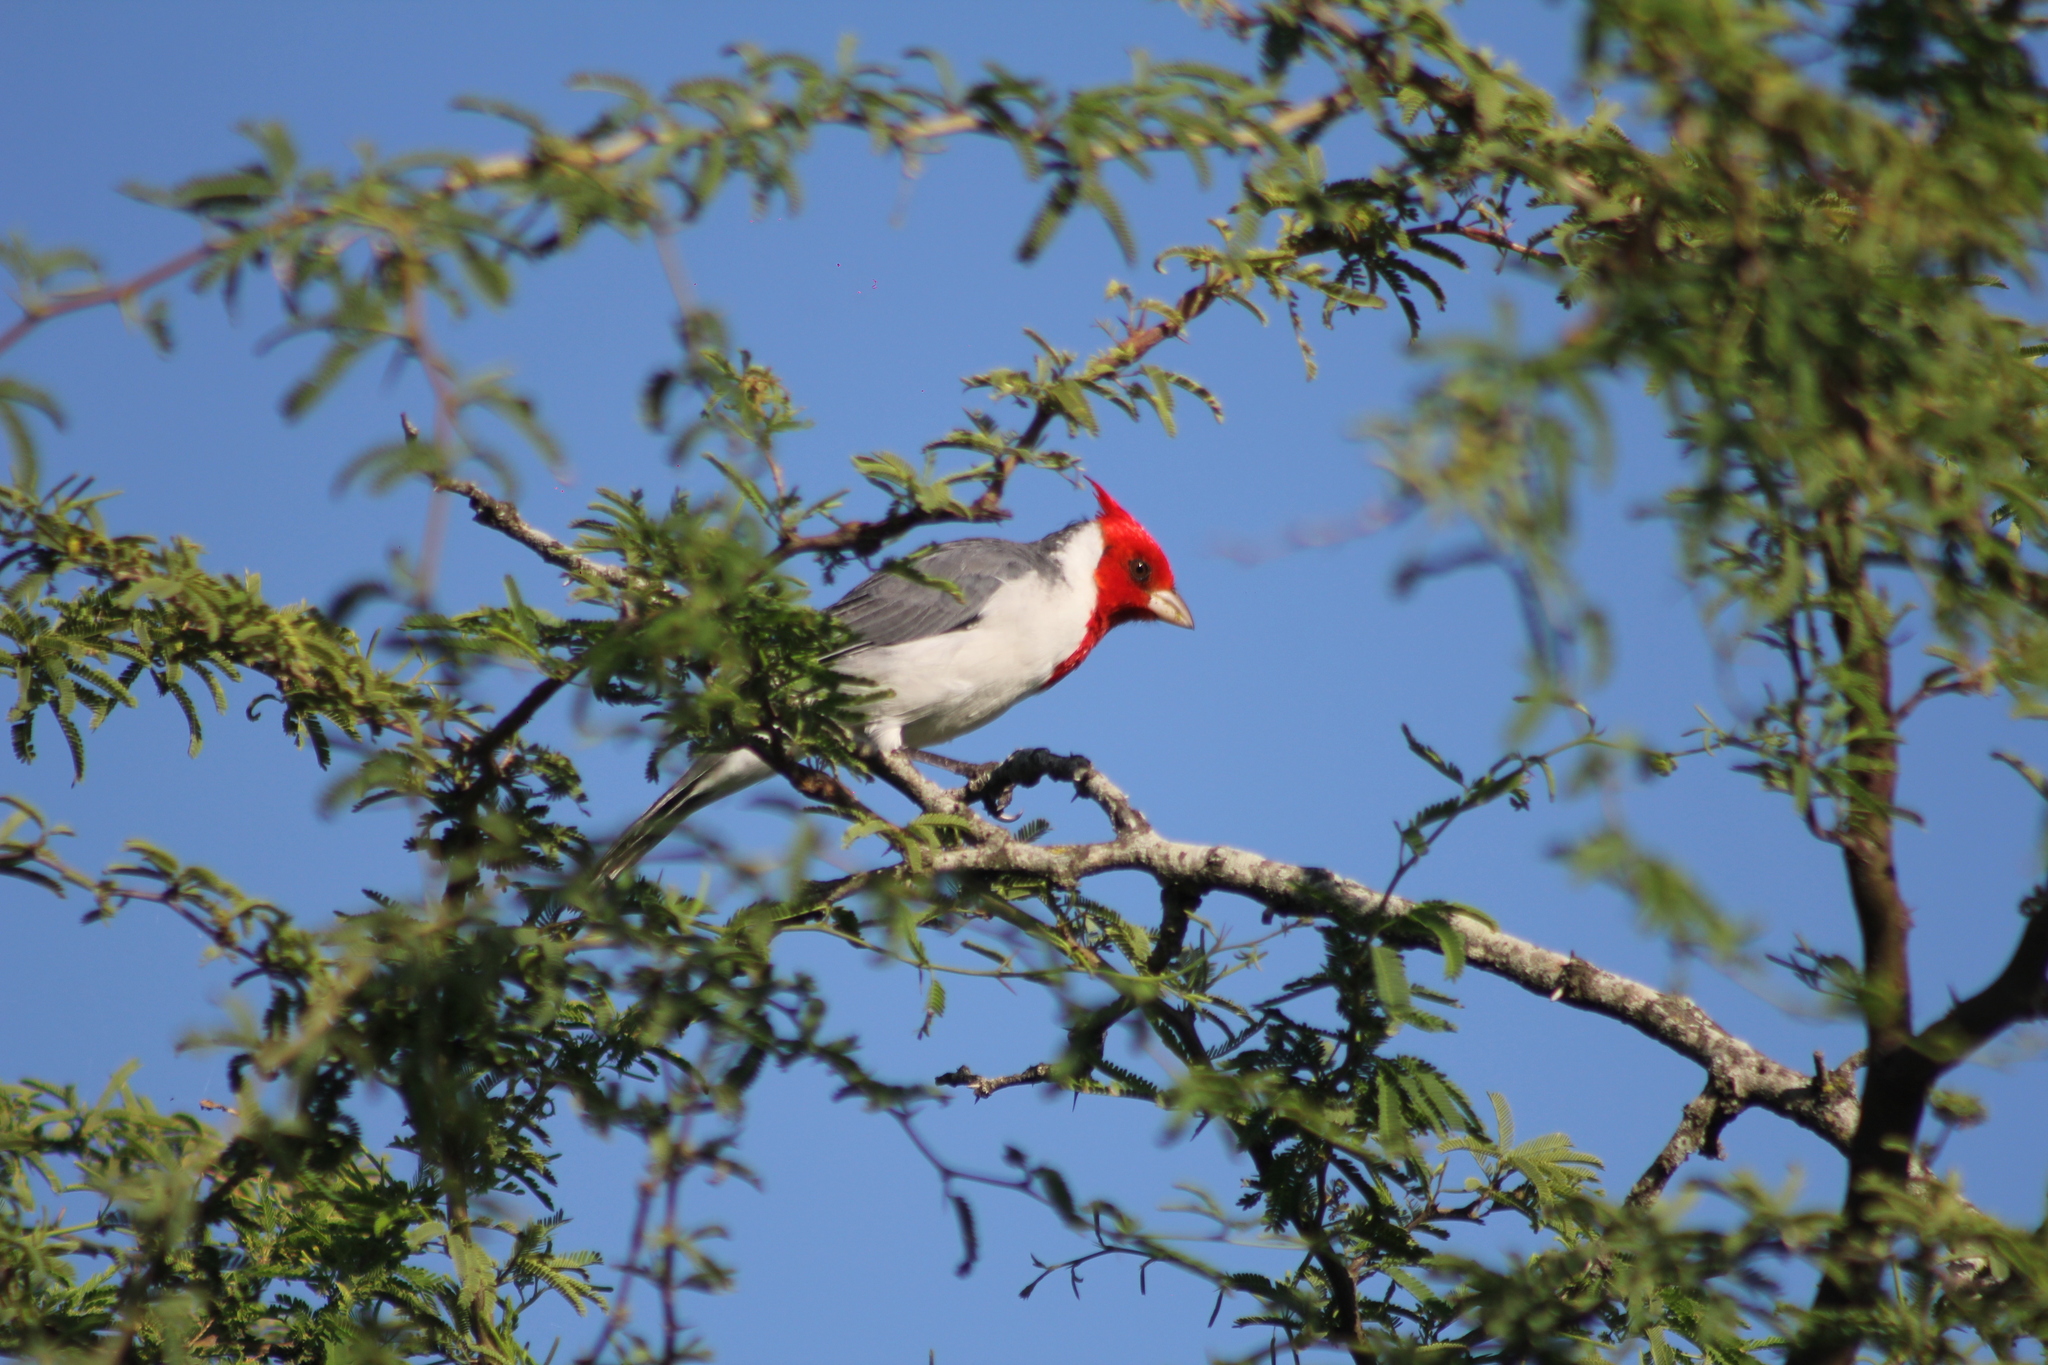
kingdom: Animalia
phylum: Chordata
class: Aves
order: Passeriformes
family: Thraupidae
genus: Paroaria
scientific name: Paroaria coronata
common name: Red-crested cardinal
